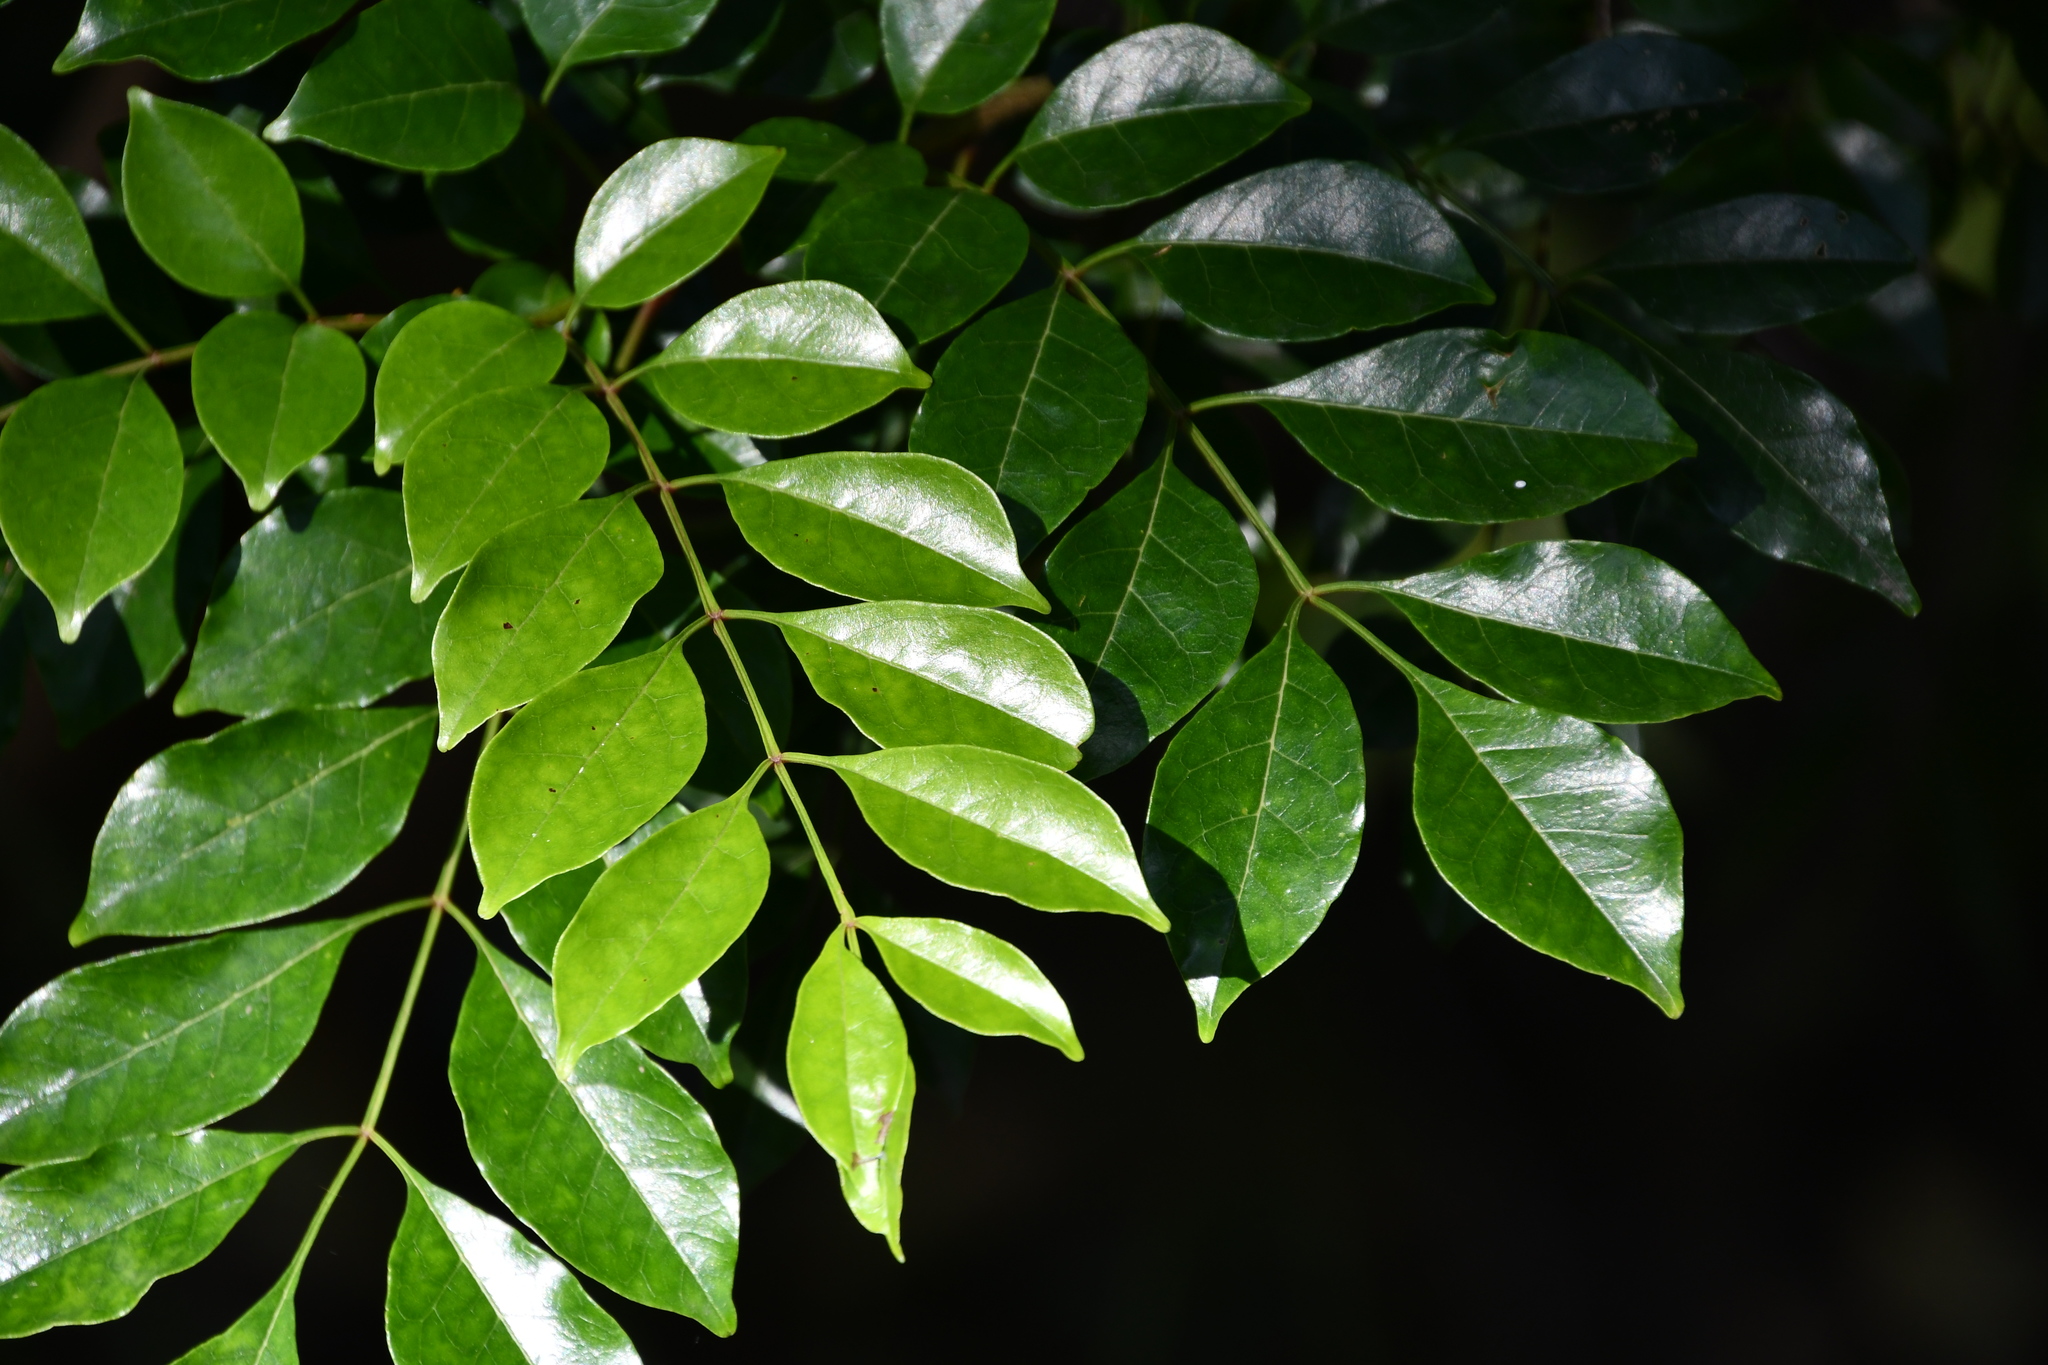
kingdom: Plantae
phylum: Tracheophyta
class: Magnoliopsida
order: Lamiales
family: Oleaceae
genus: Fraxinus
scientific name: Fraxinus griffithii
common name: Himalayan ash
